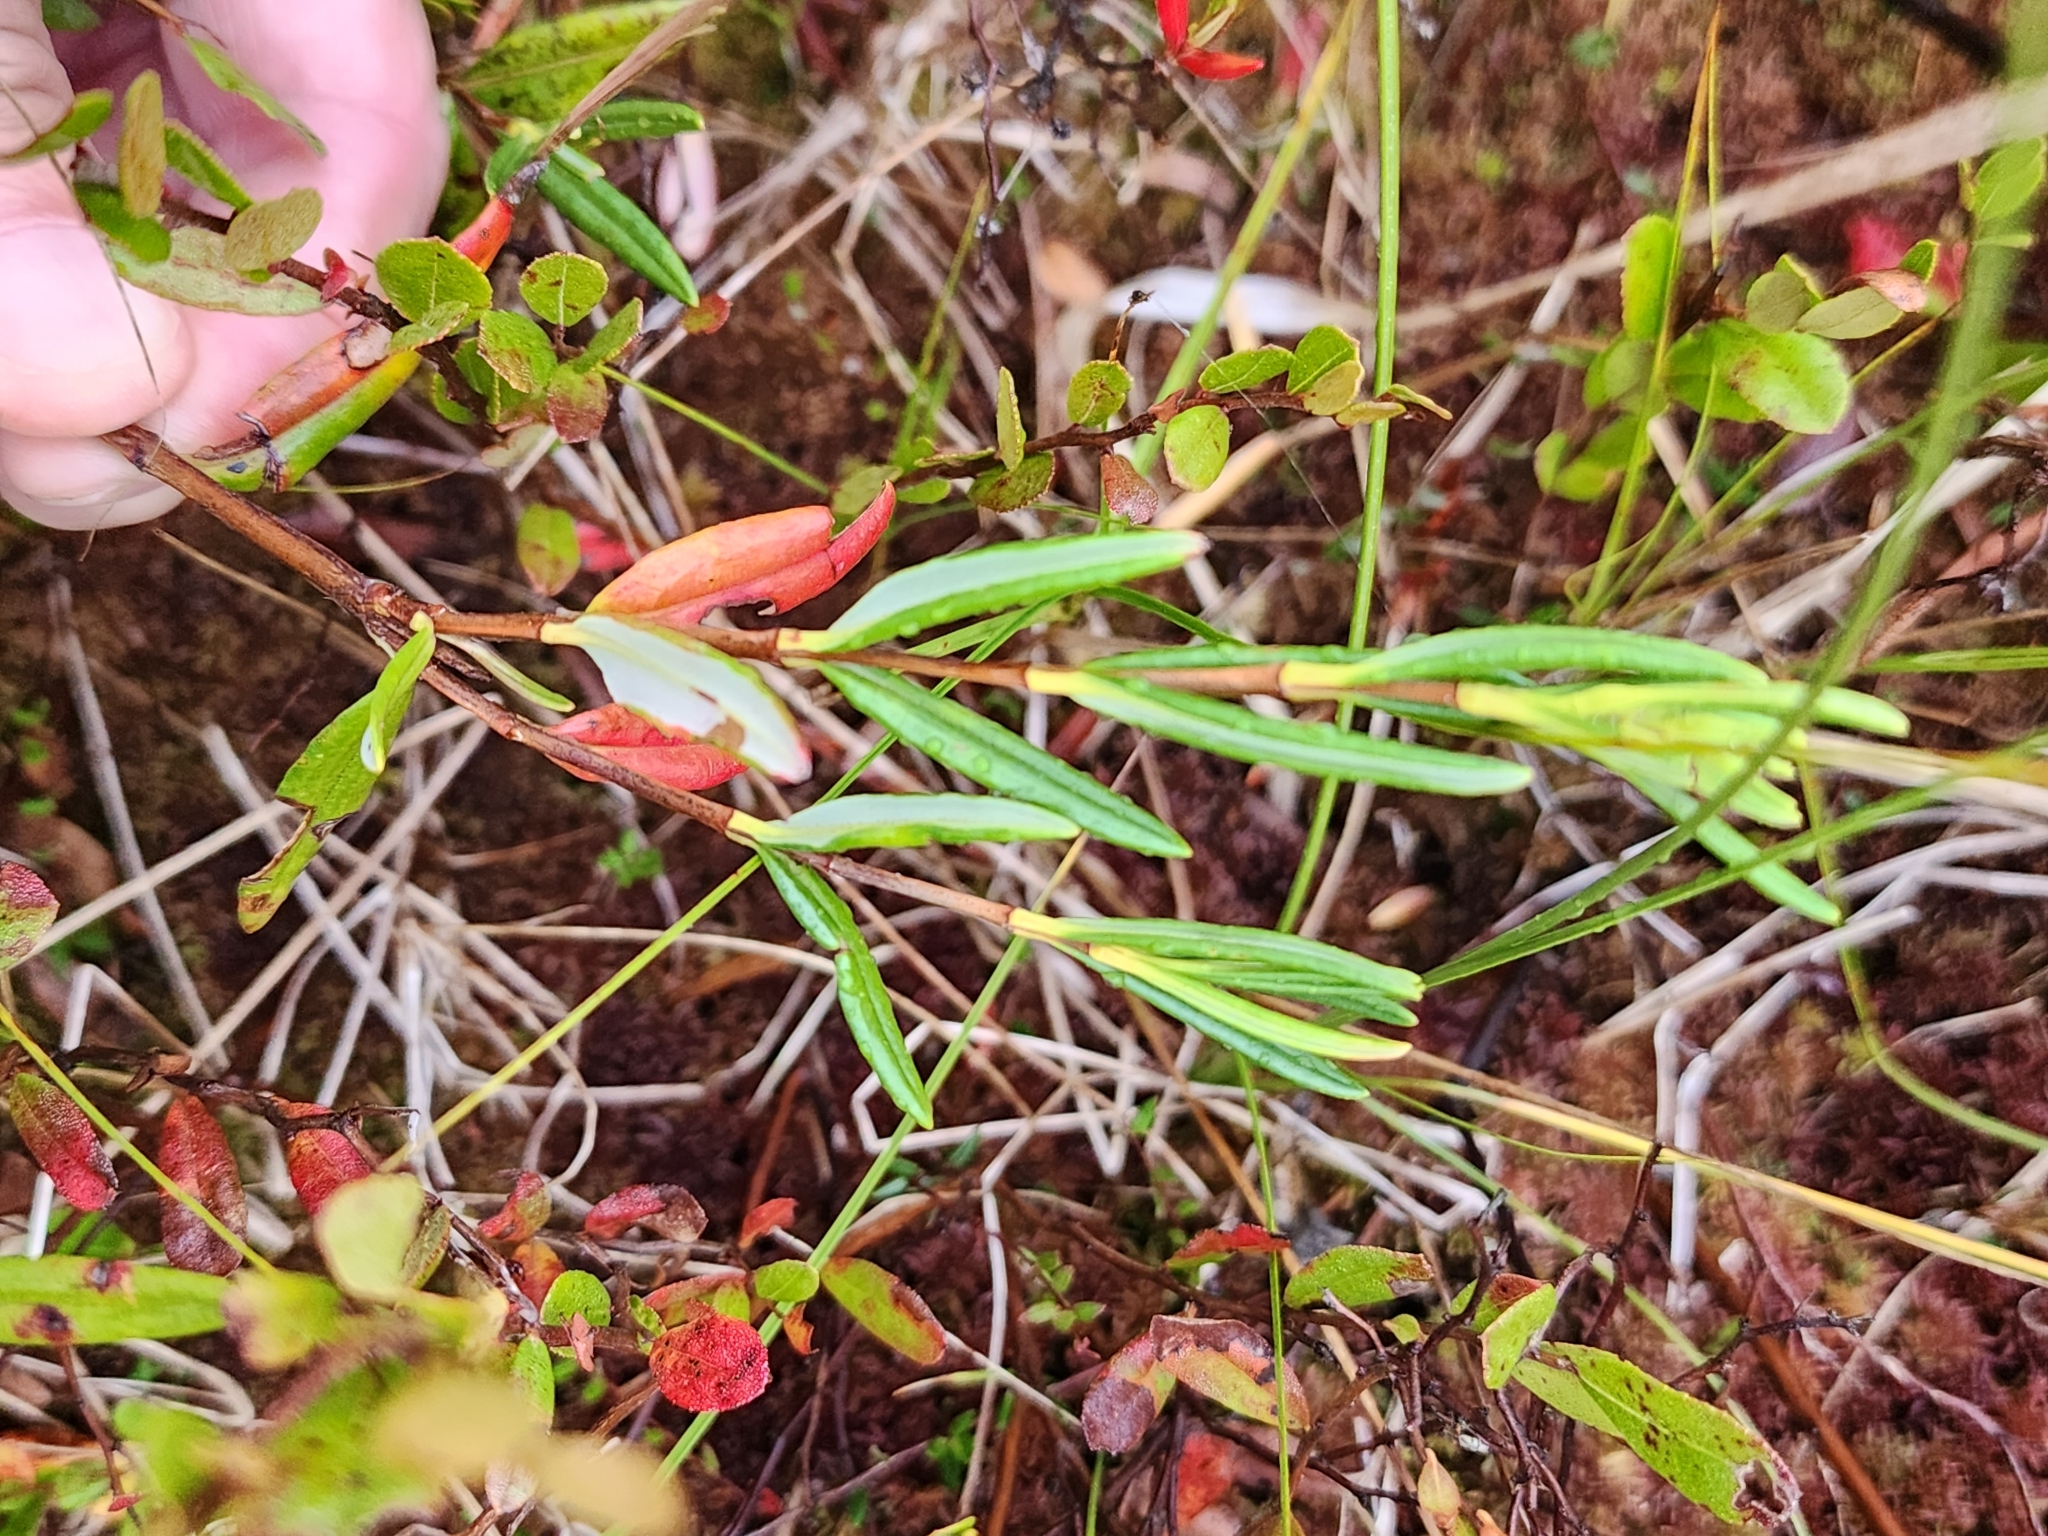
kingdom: Plantae
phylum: Tracheophyta
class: Magnoliopsida
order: Ericales
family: Ericaceae
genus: Kalmia
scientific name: Kalmia polifolia
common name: Bog-laurel
